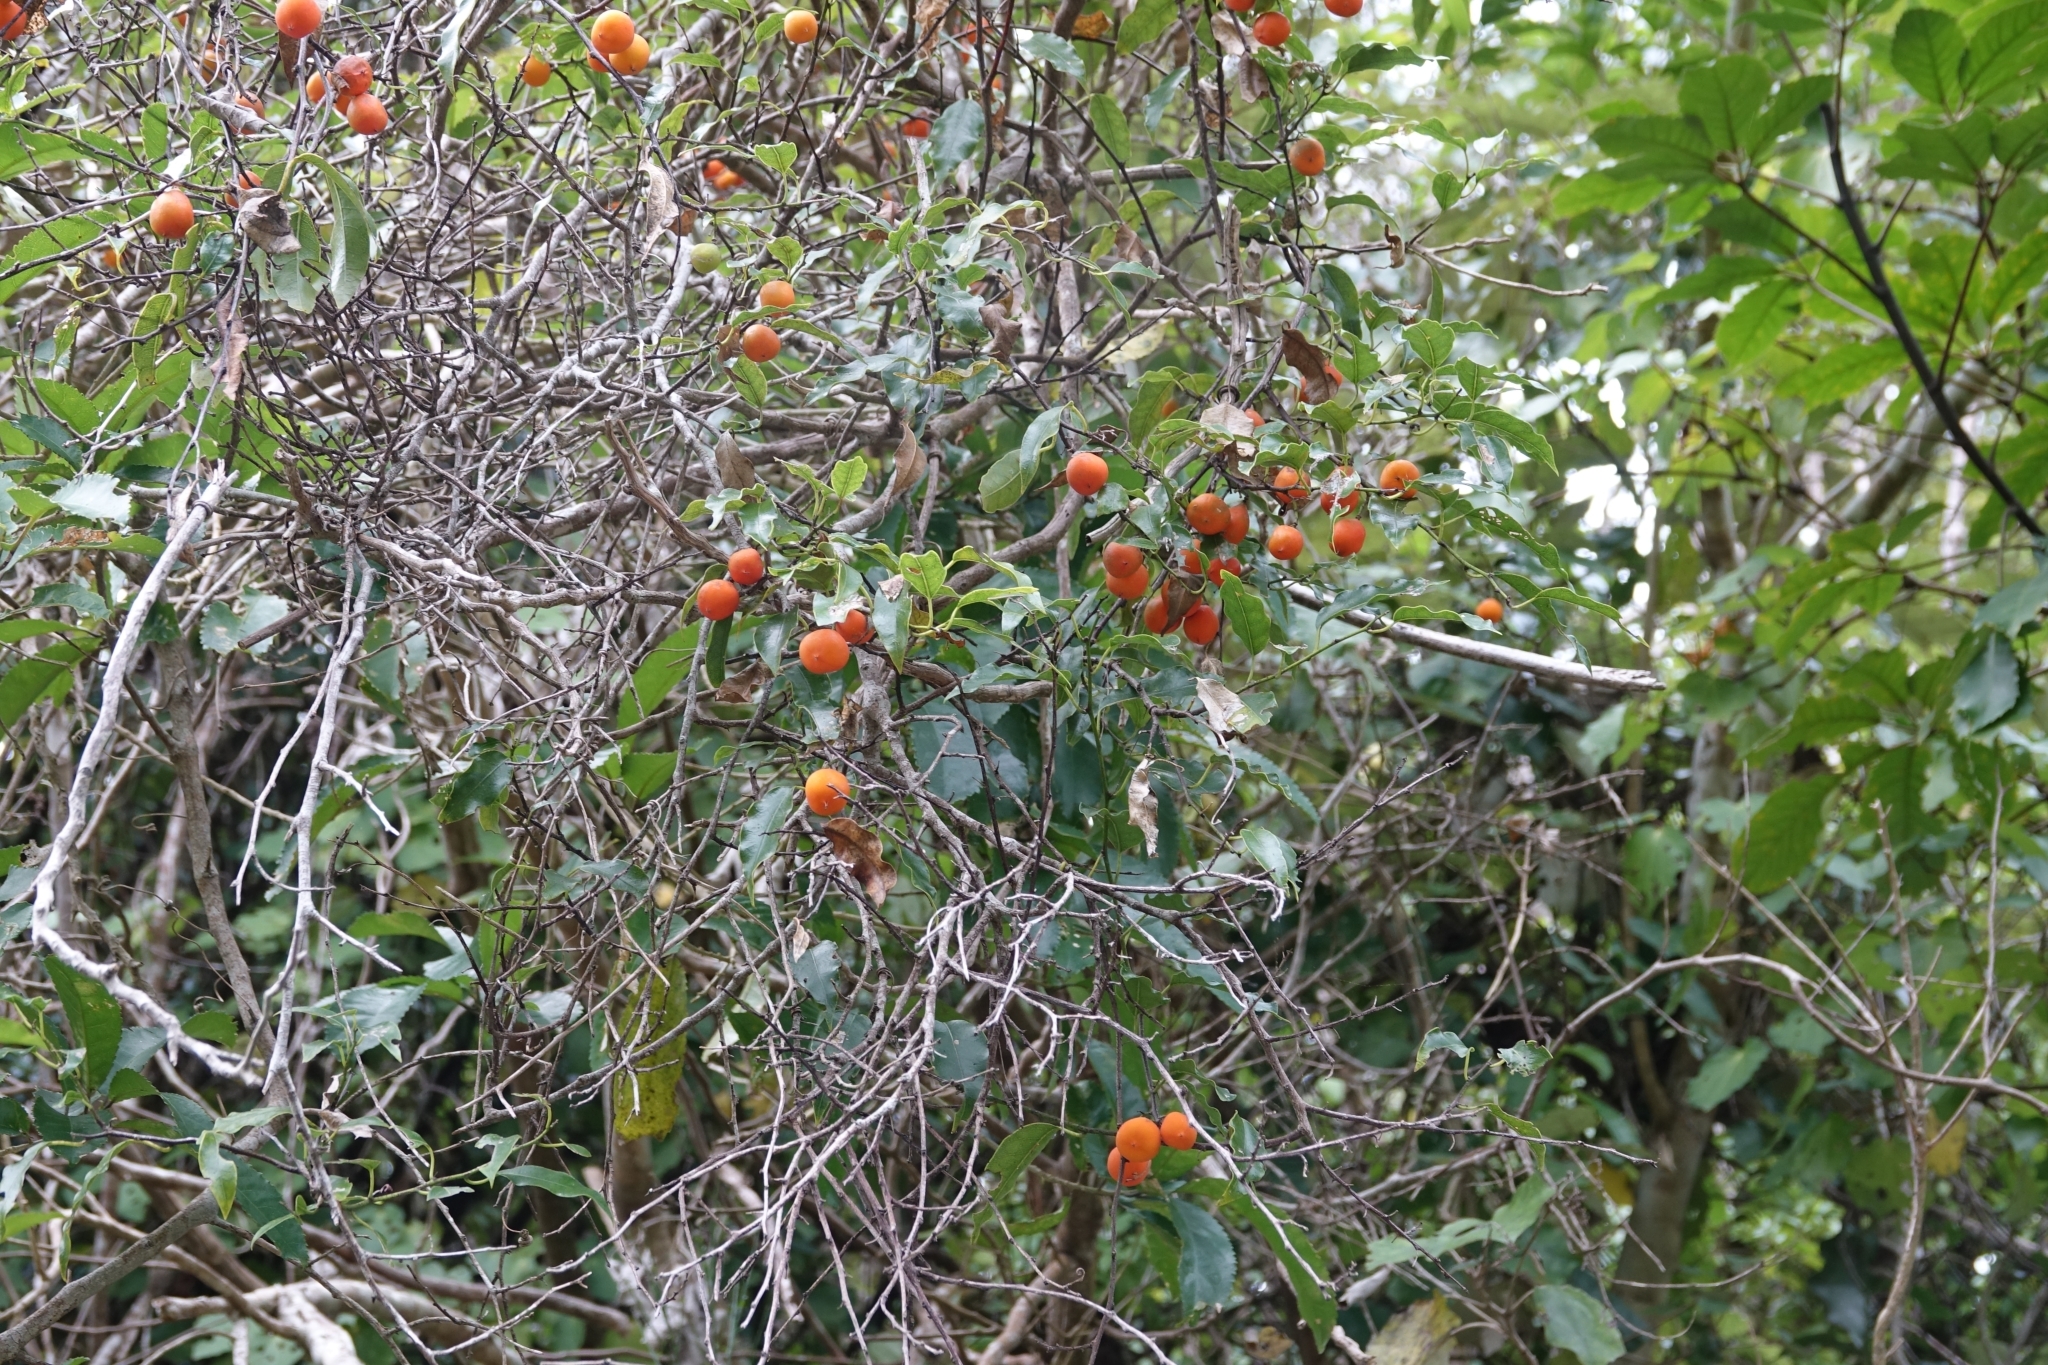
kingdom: Plantae
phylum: Tracheophyta
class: Magnoliopsida
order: Malpighiales
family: Passifloraceae
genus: Passiflora
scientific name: Passiflora tetrandra
